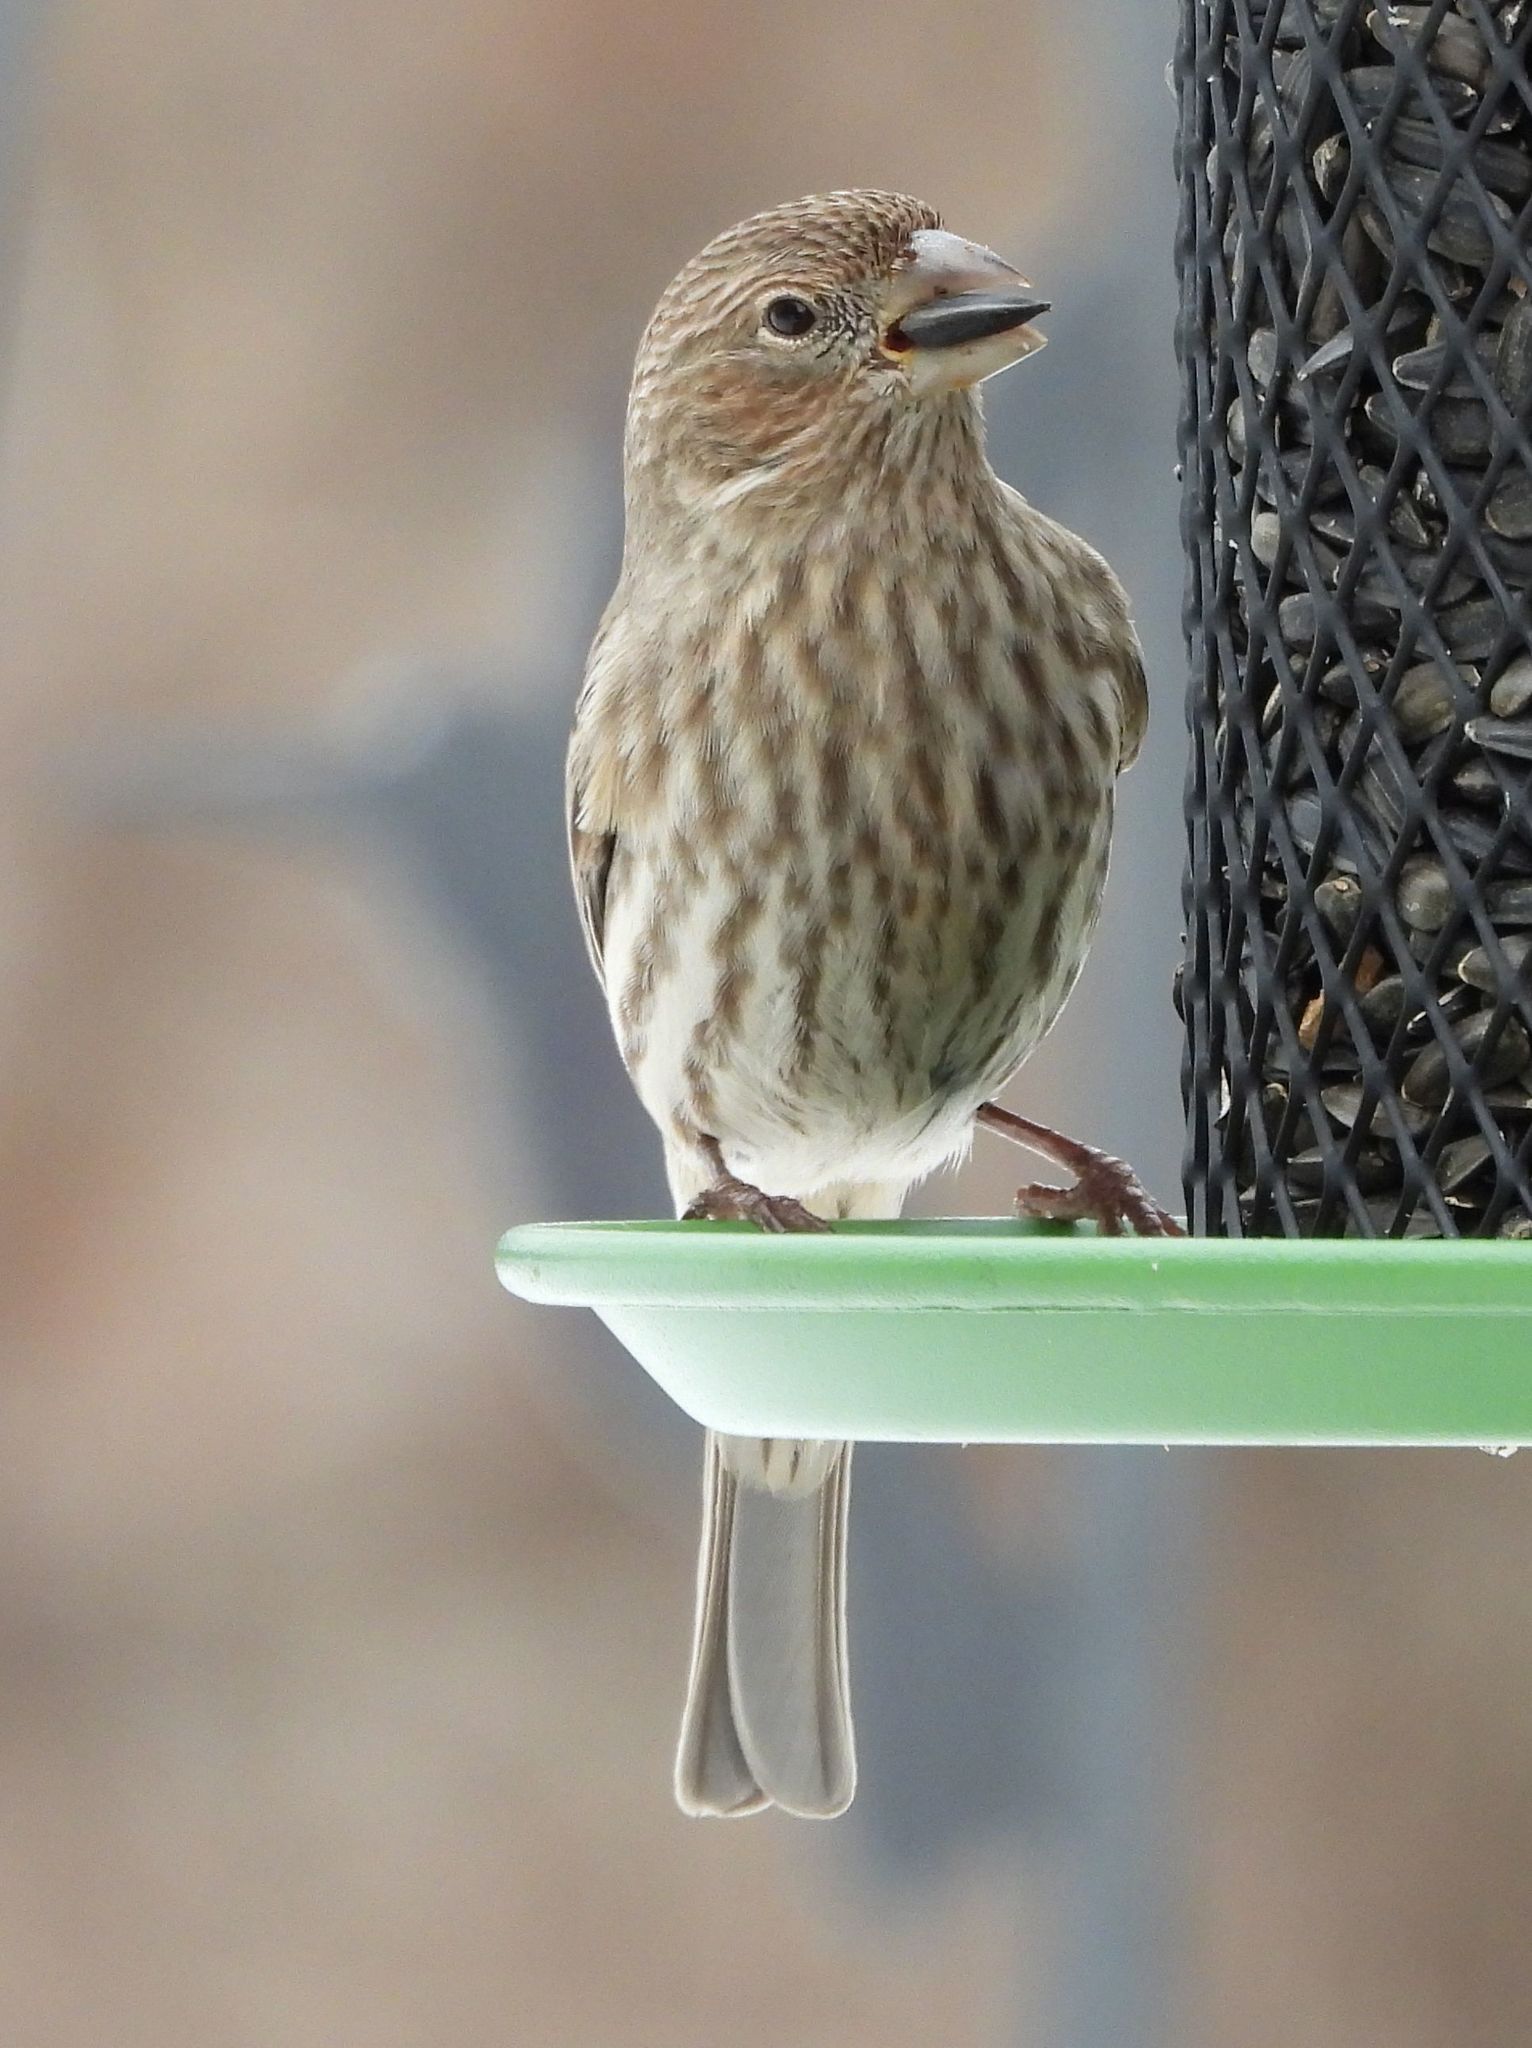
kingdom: Animalia
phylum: Chordata
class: Aves
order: Passeriformes
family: Fringillidae
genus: Haemorhous
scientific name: Haemorhous mexicanus
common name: House finch
